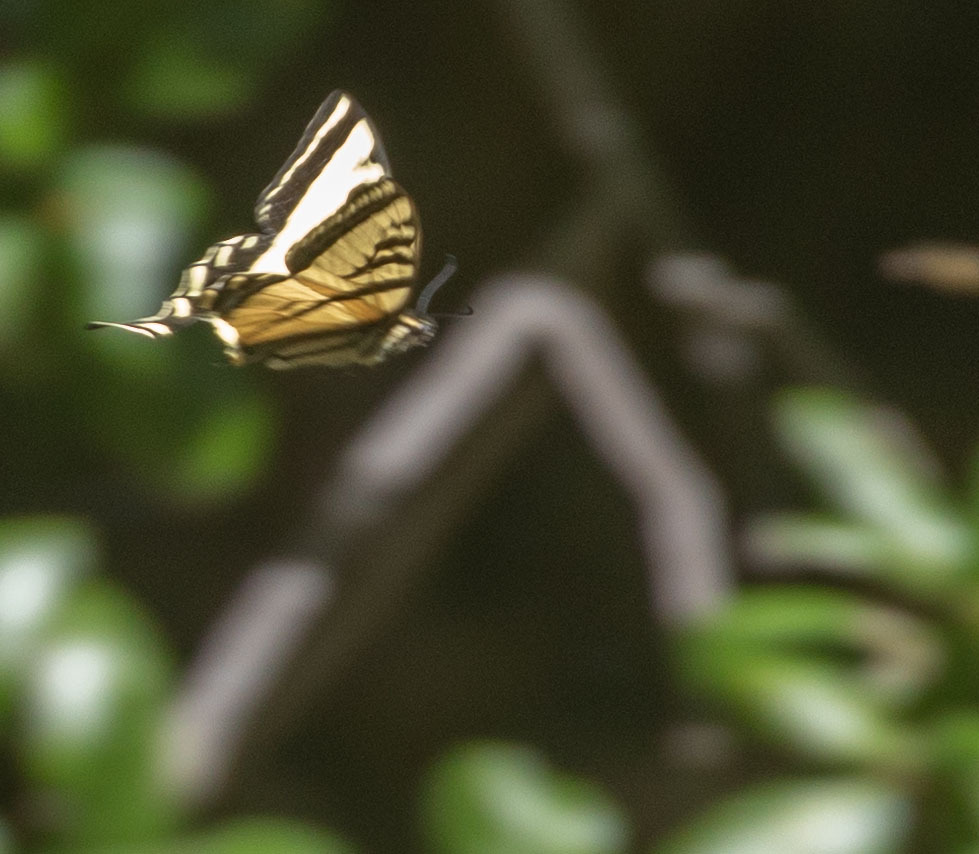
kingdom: Animalia
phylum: Arthropoda
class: Insecta
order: Lepidoptera
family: Papilionidae
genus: Papilio
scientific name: Papilio rutulus
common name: Western tiger swallowtail
